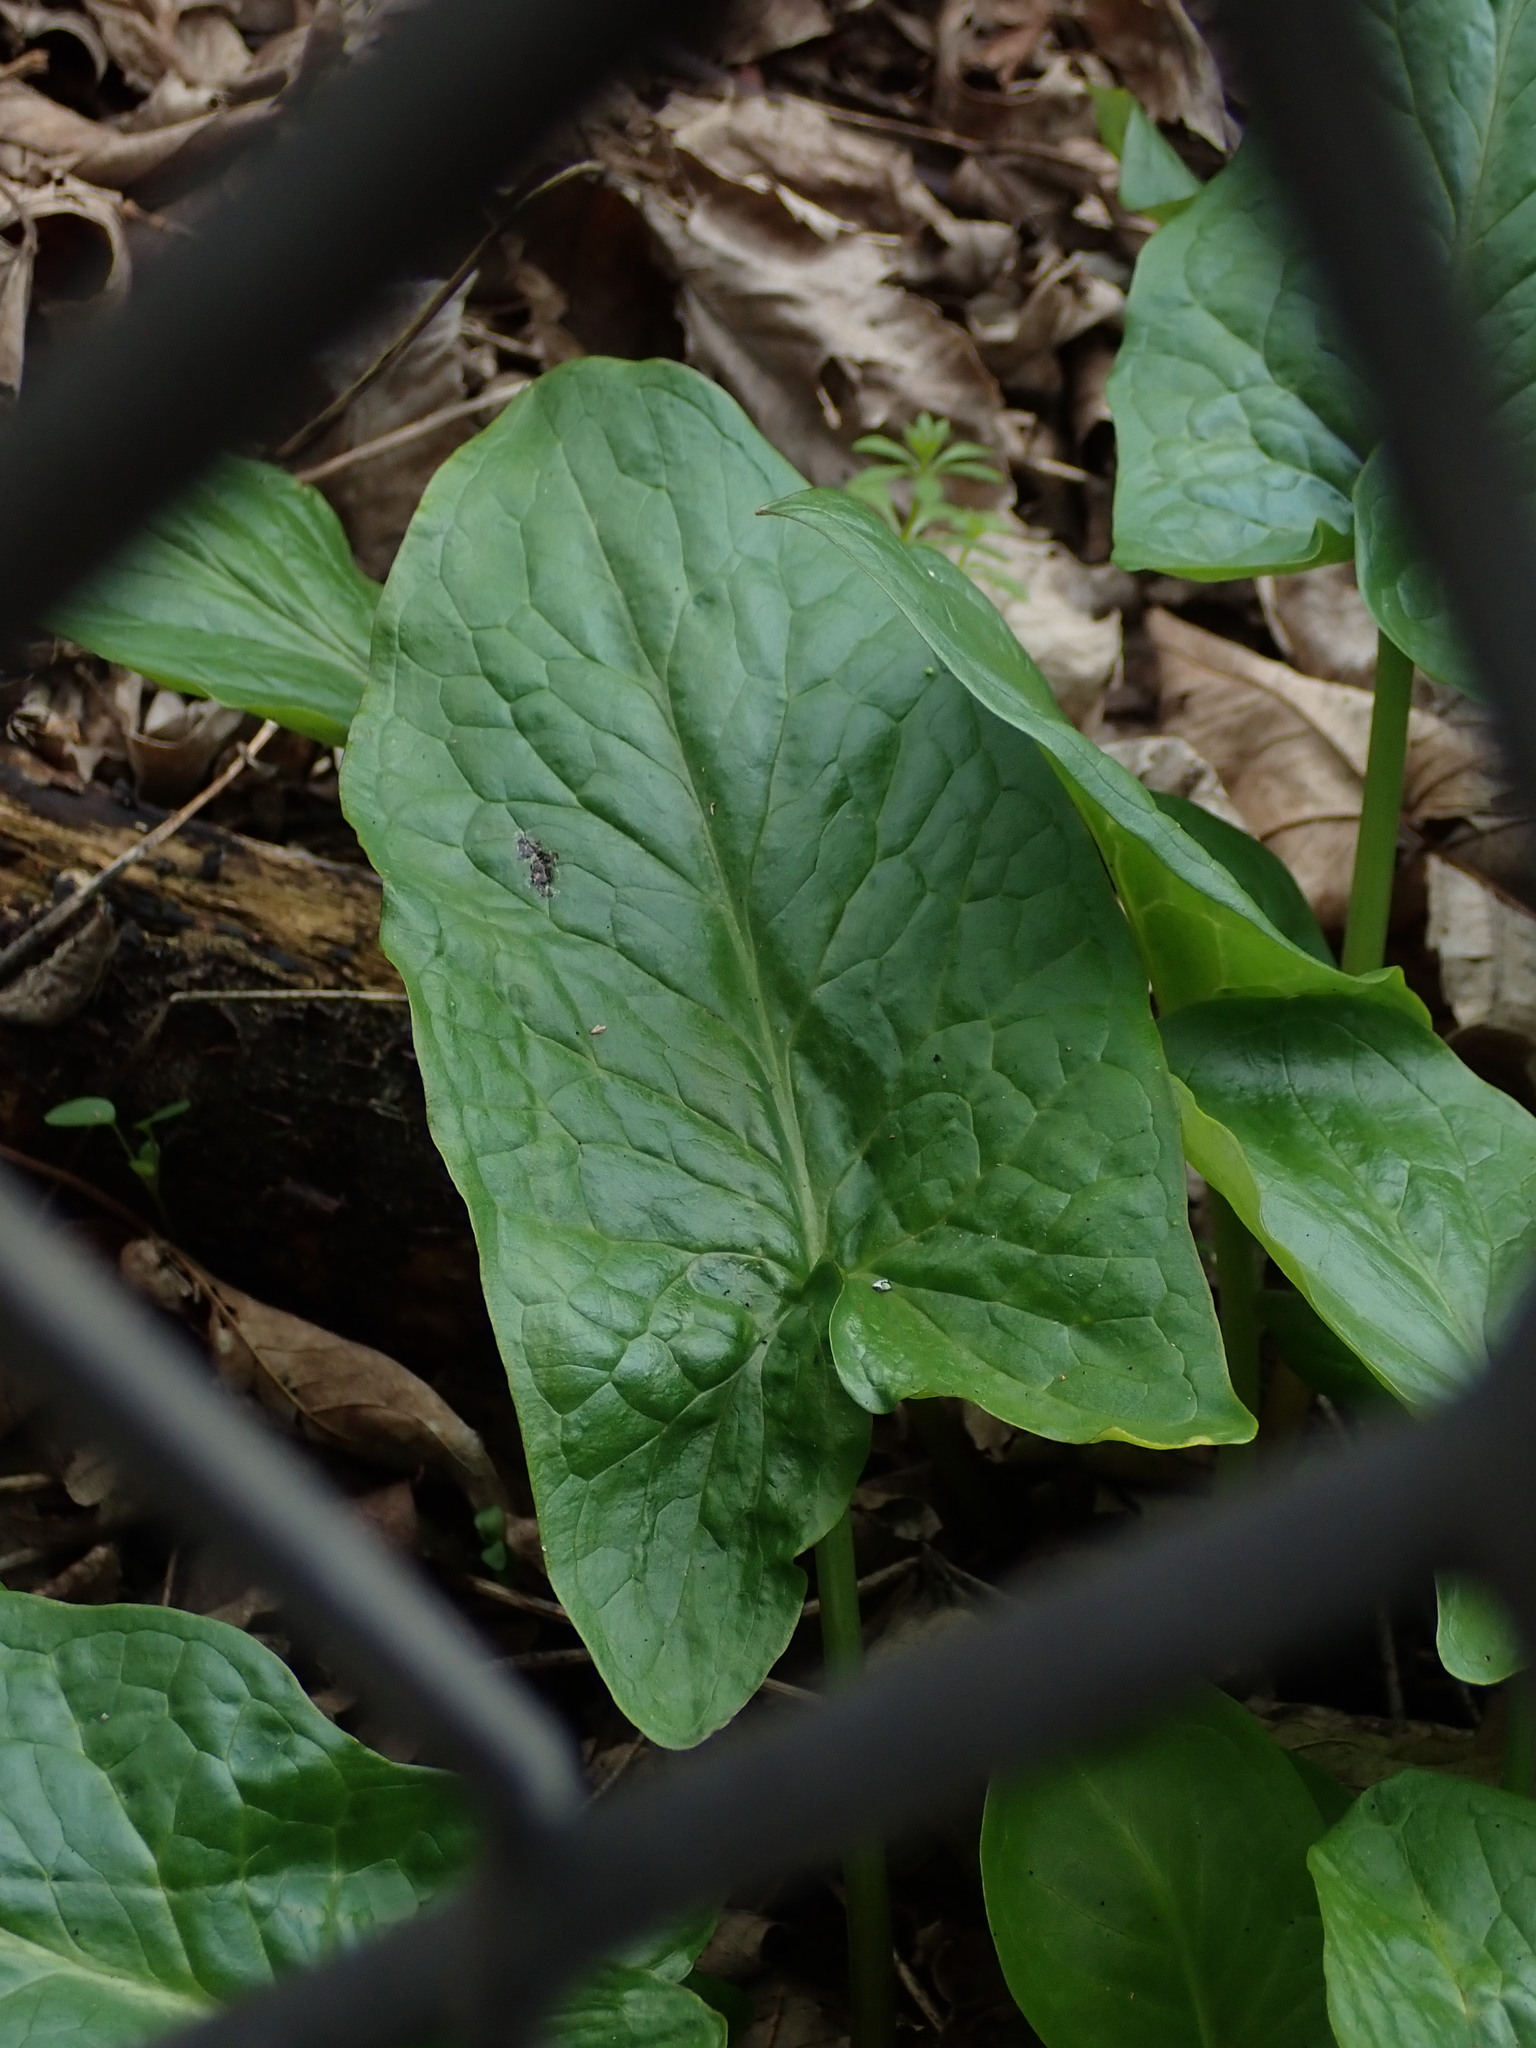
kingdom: Plantae
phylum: Tracheophyta
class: Liliopsida
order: Alismatales
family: Araceae
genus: Arum
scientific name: Arum maculatum
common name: Lords-and-ladies
